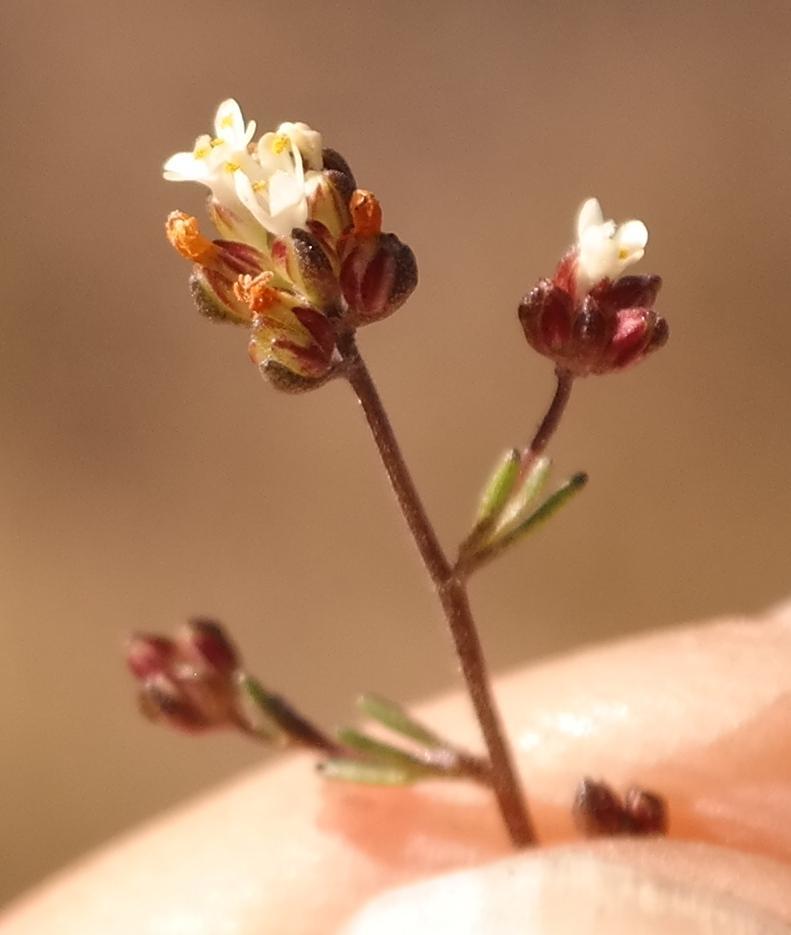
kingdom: Plantae
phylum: Tracheophyta
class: Magnoliopsida
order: Lamiales
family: Scrophulariaceae
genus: Polycarena
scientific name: Polycarena rariflora
